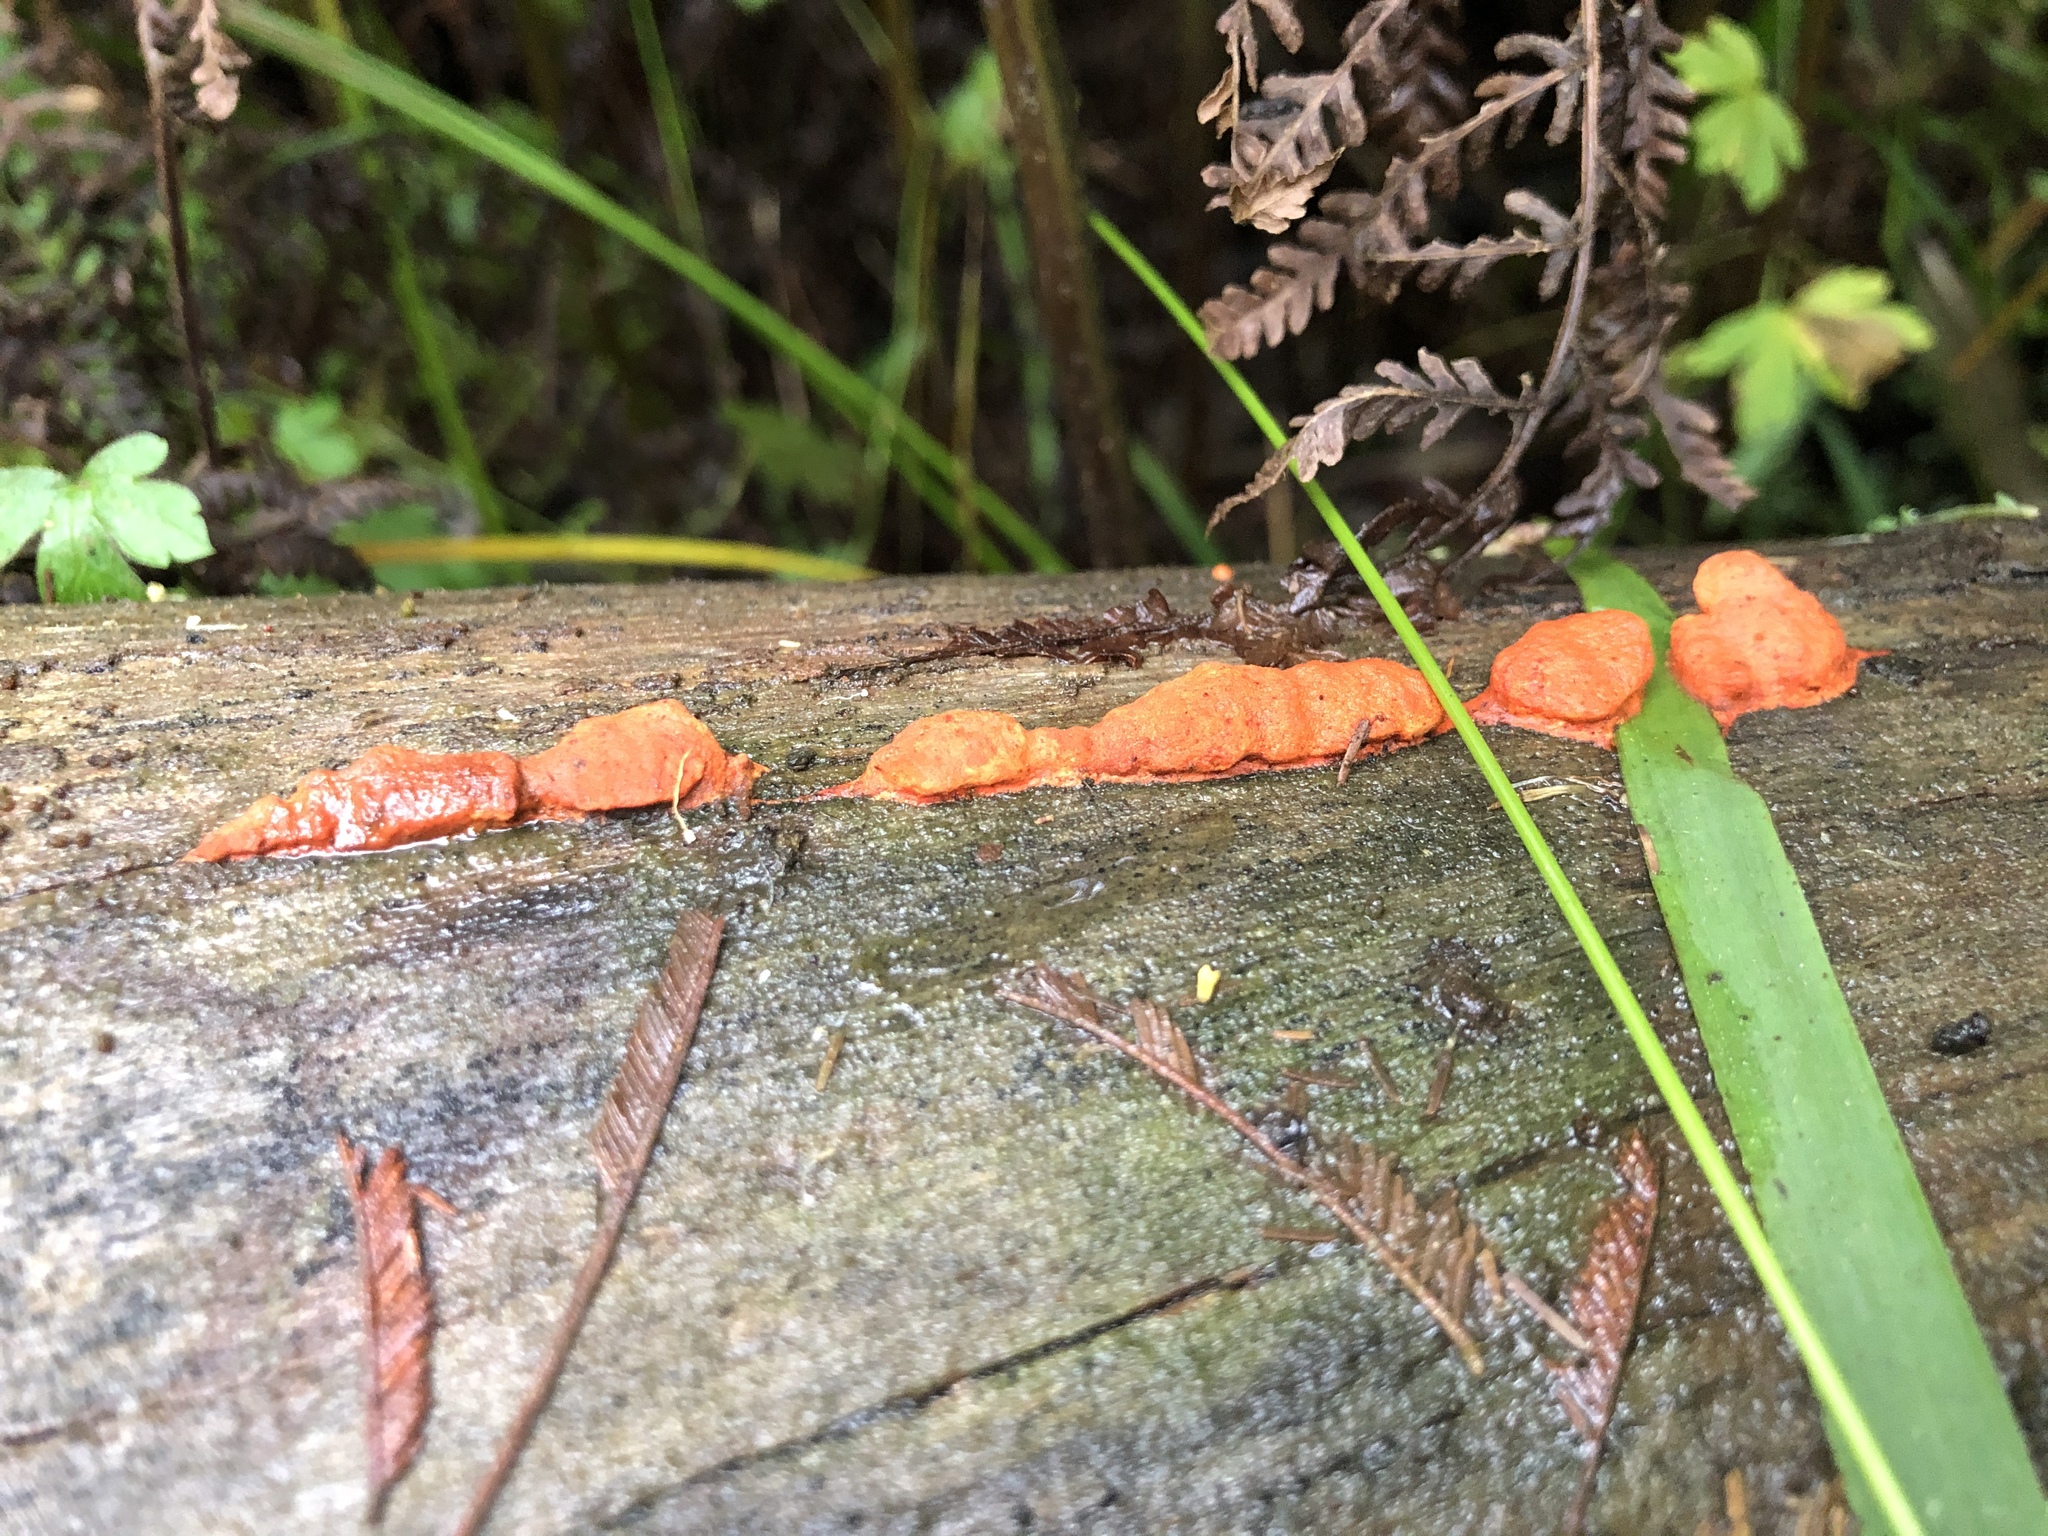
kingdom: Fungi
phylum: Basidiomycota
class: Agaricomycetes
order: Polyporales
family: Polyporaceae
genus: Trametes
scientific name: Trametes coccinea
